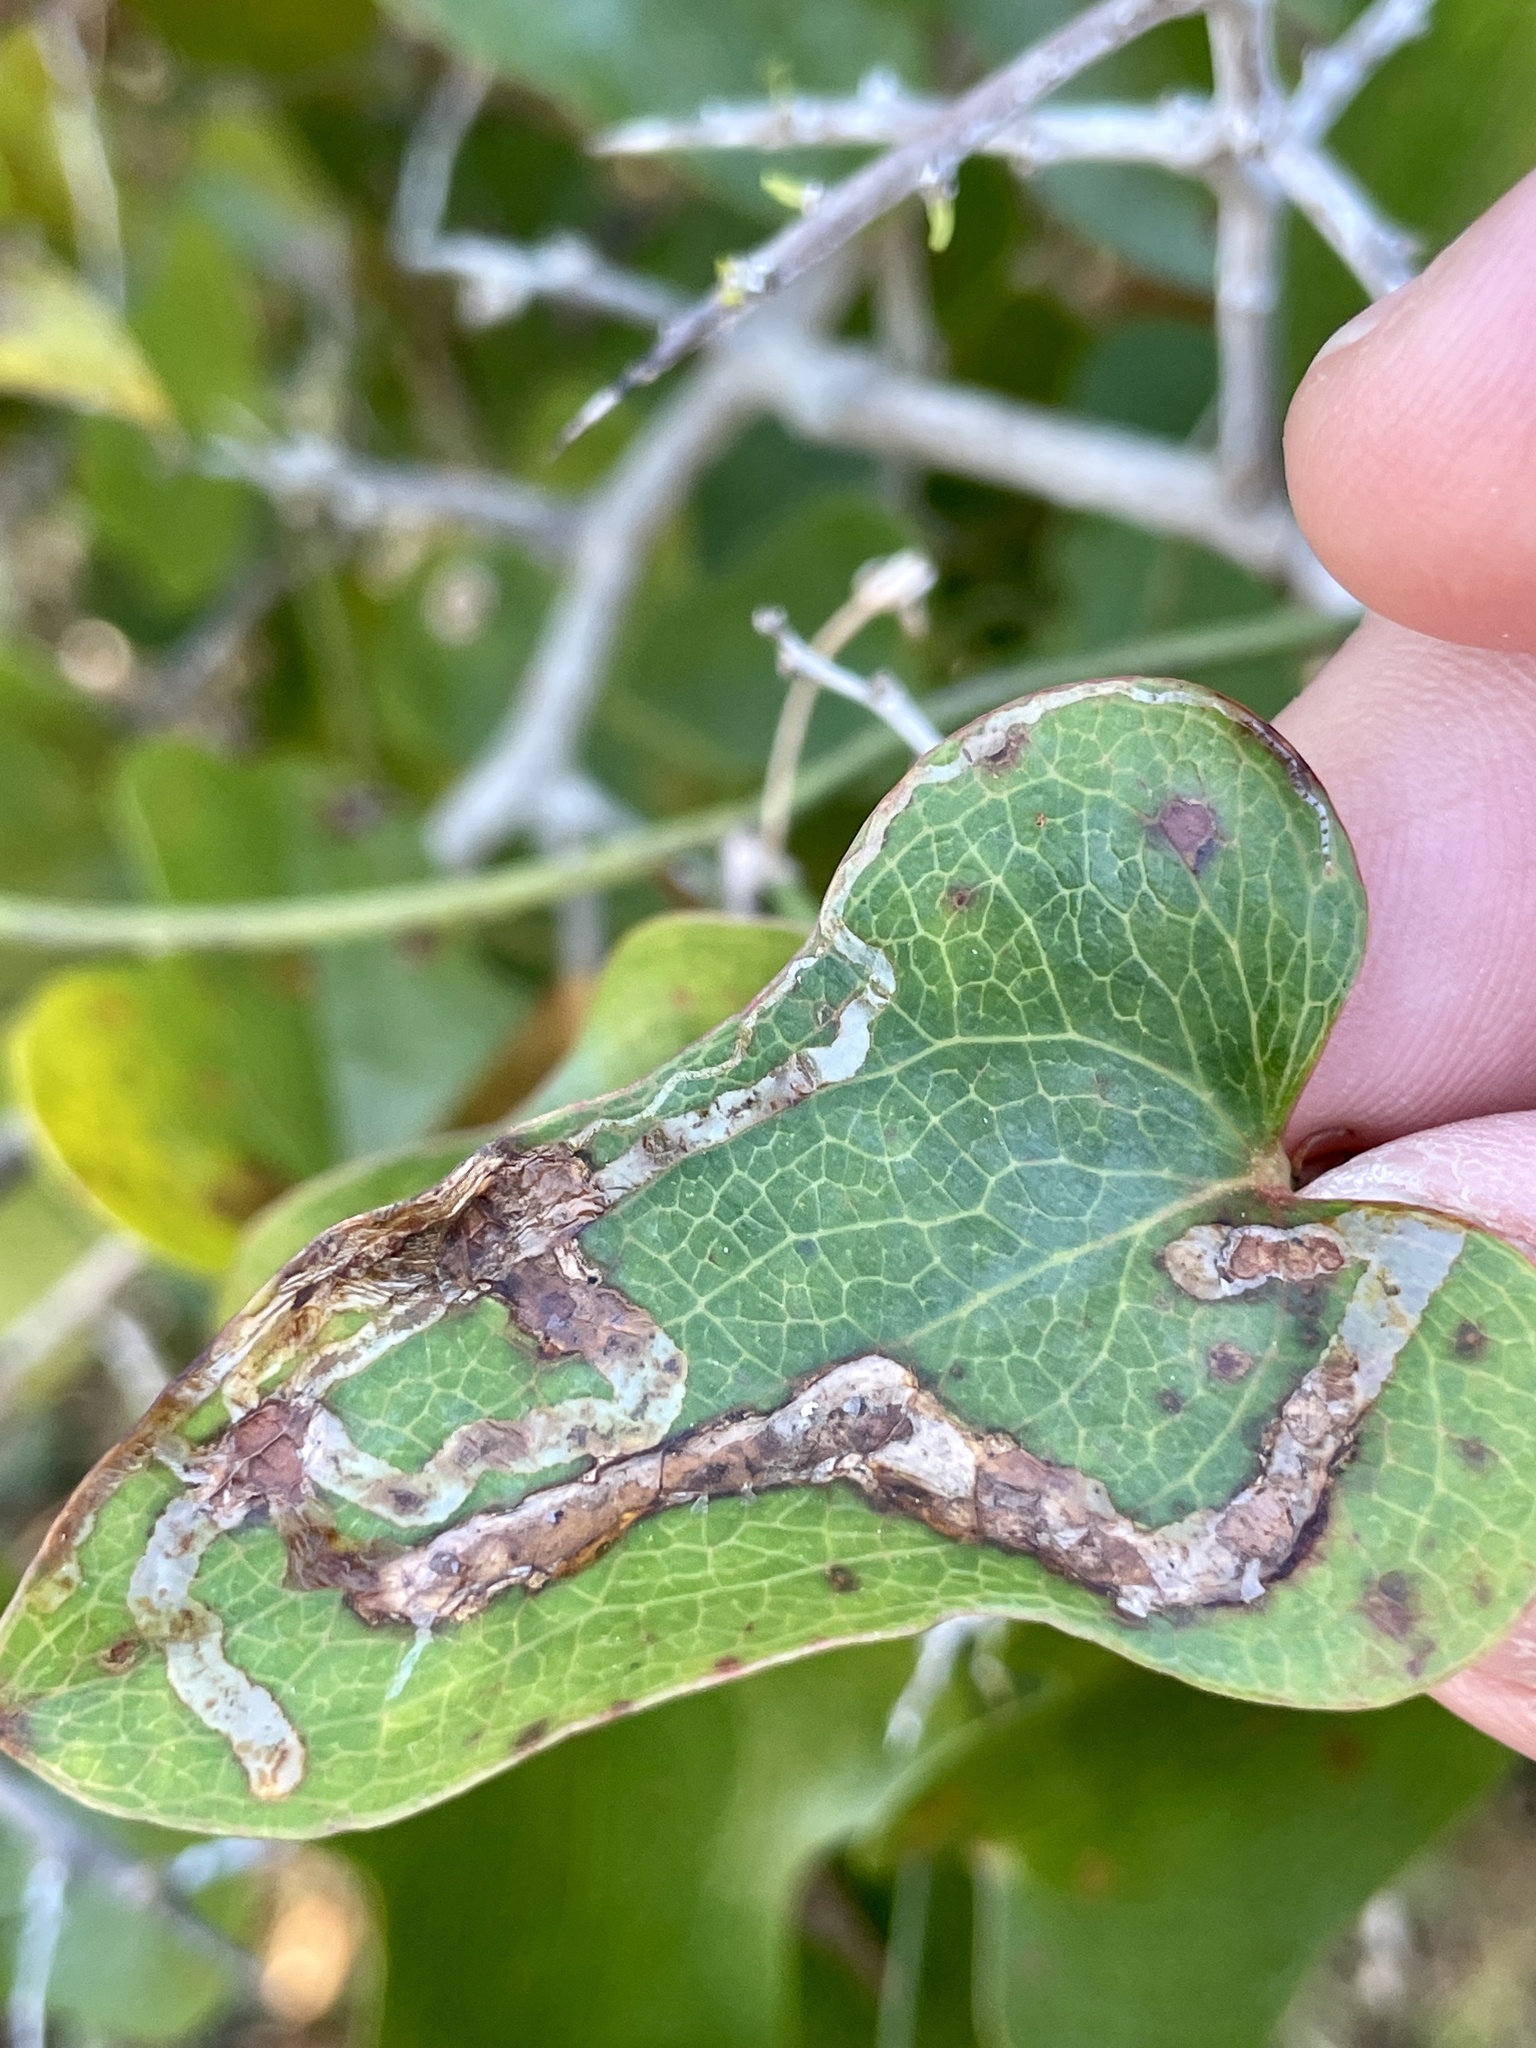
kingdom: Animalia
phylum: Arthropoda
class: Insecta
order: Diptera
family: Agromyzidae
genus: Liriomyza
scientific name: Liriomyza schmidti
